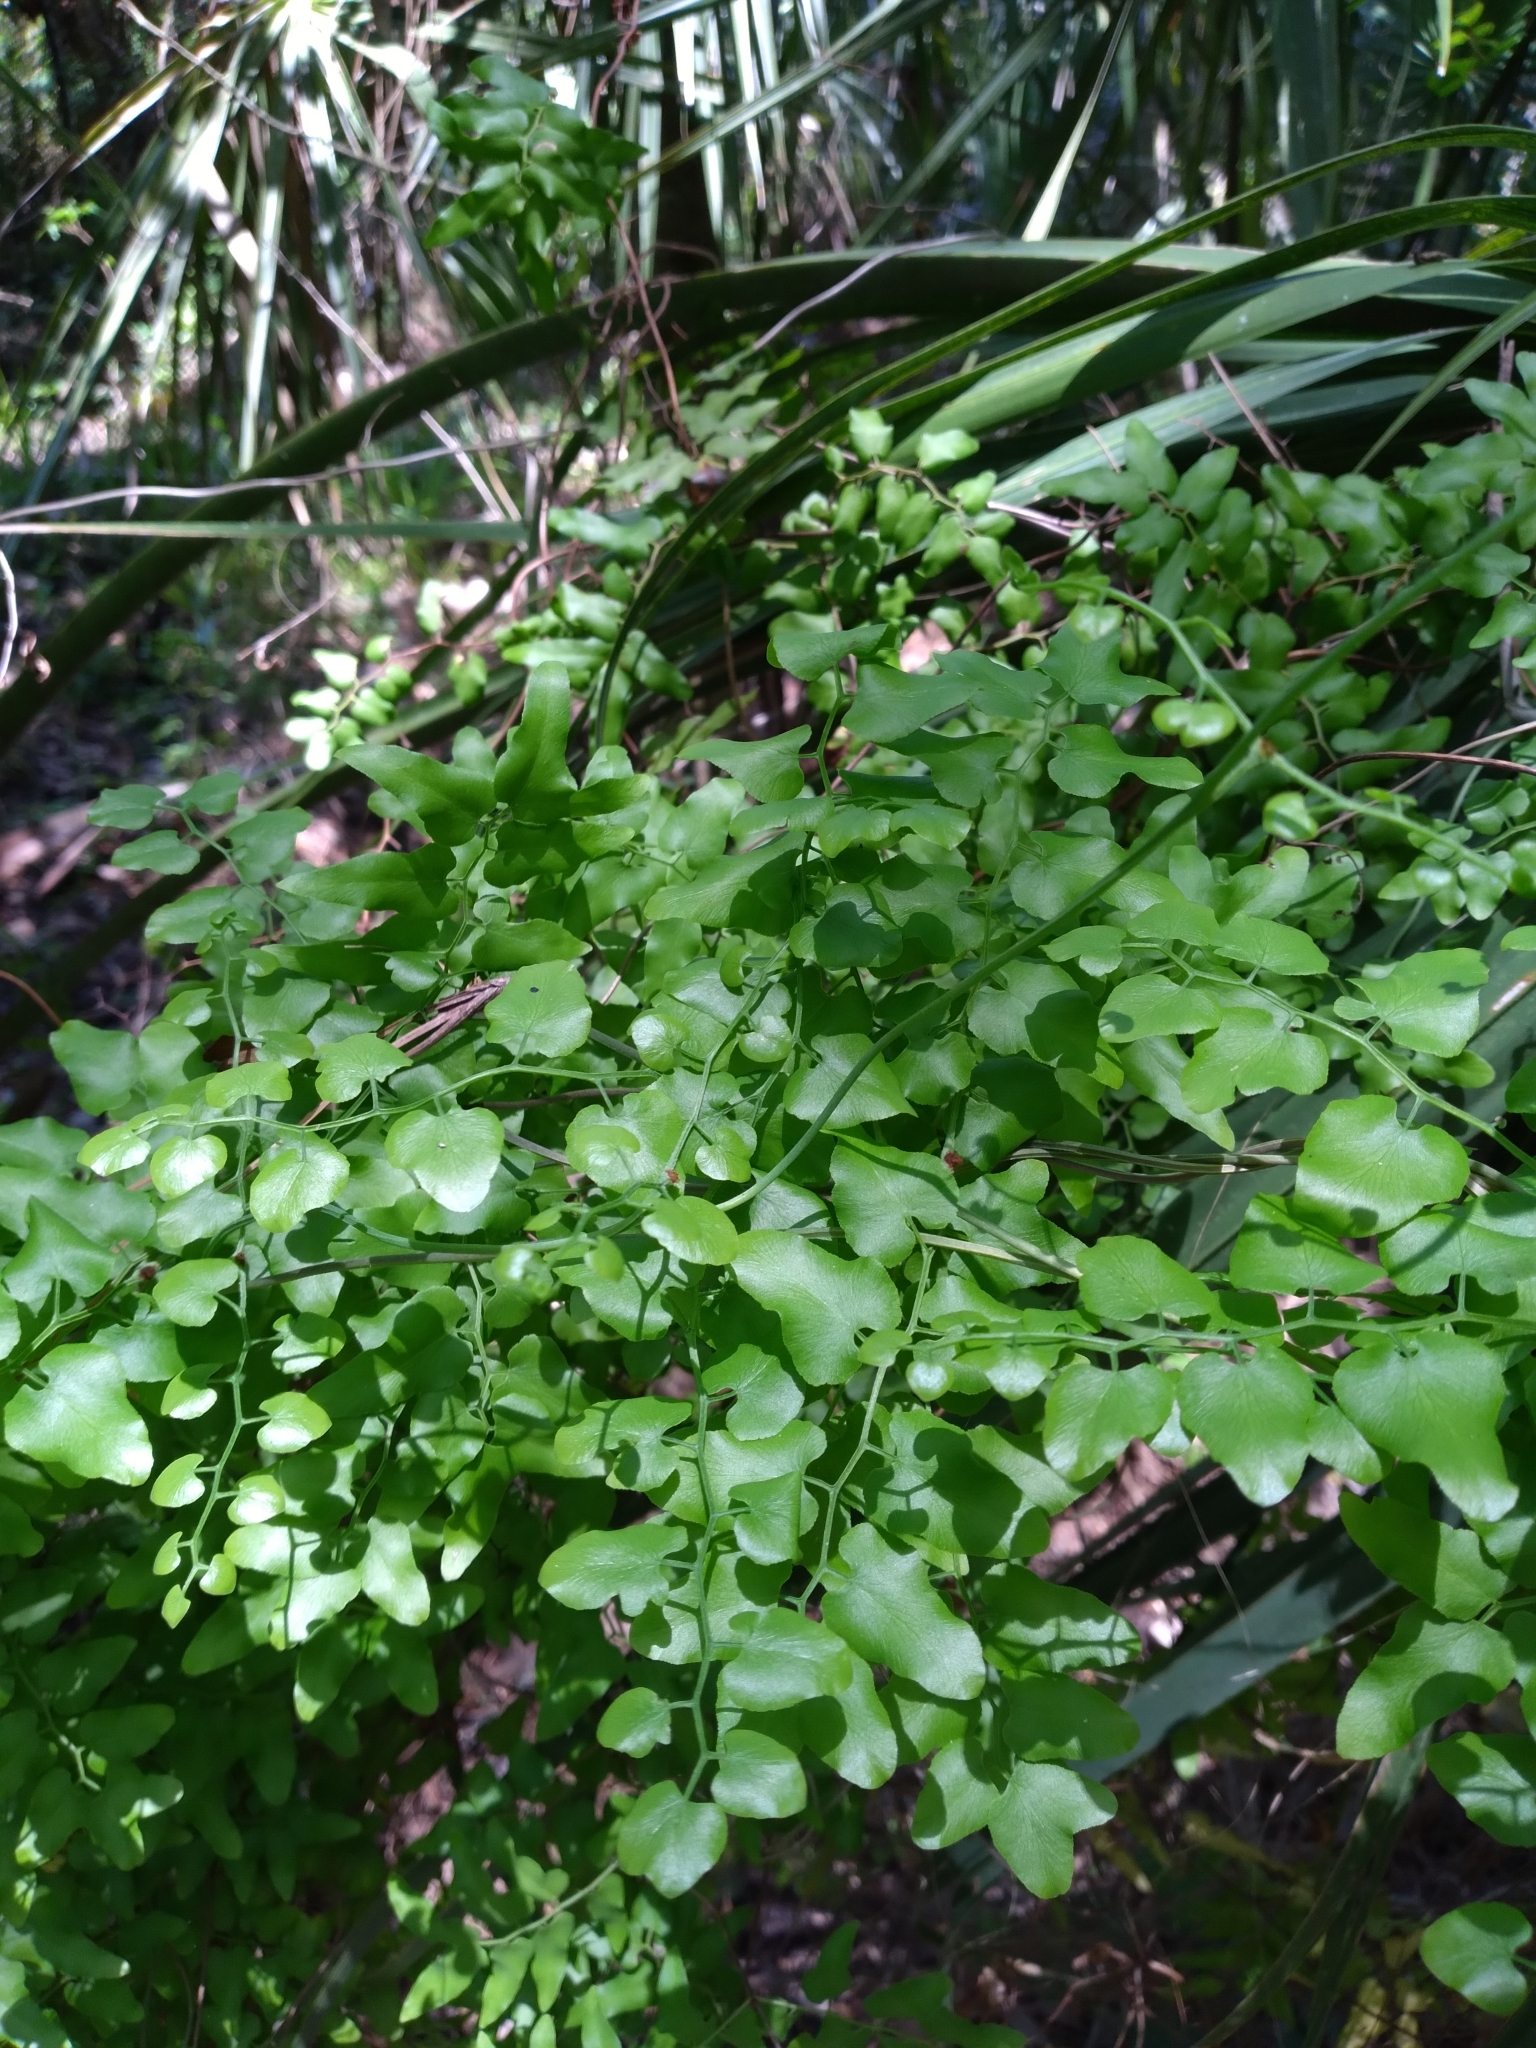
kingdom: Plantae
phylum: Tracheophyta
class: Polypodiopsida
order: Schizaeales
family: Lygodiaceae
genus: Lygodium
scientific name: Lygodium microphyllum
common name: Small-leaf climbing fern
